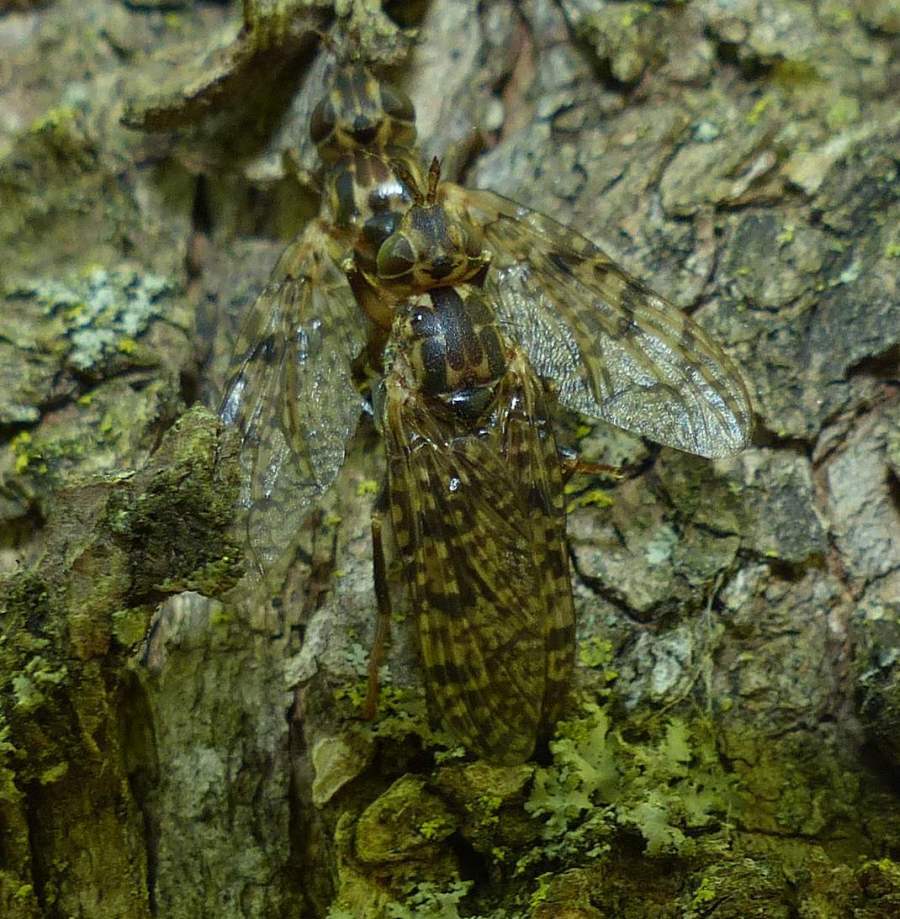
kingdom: Animalia
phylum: Arthropoda
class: Insecta
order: Diptera
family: Pyrgotidae
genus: Pyrgota
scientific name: Pyrgota valida
